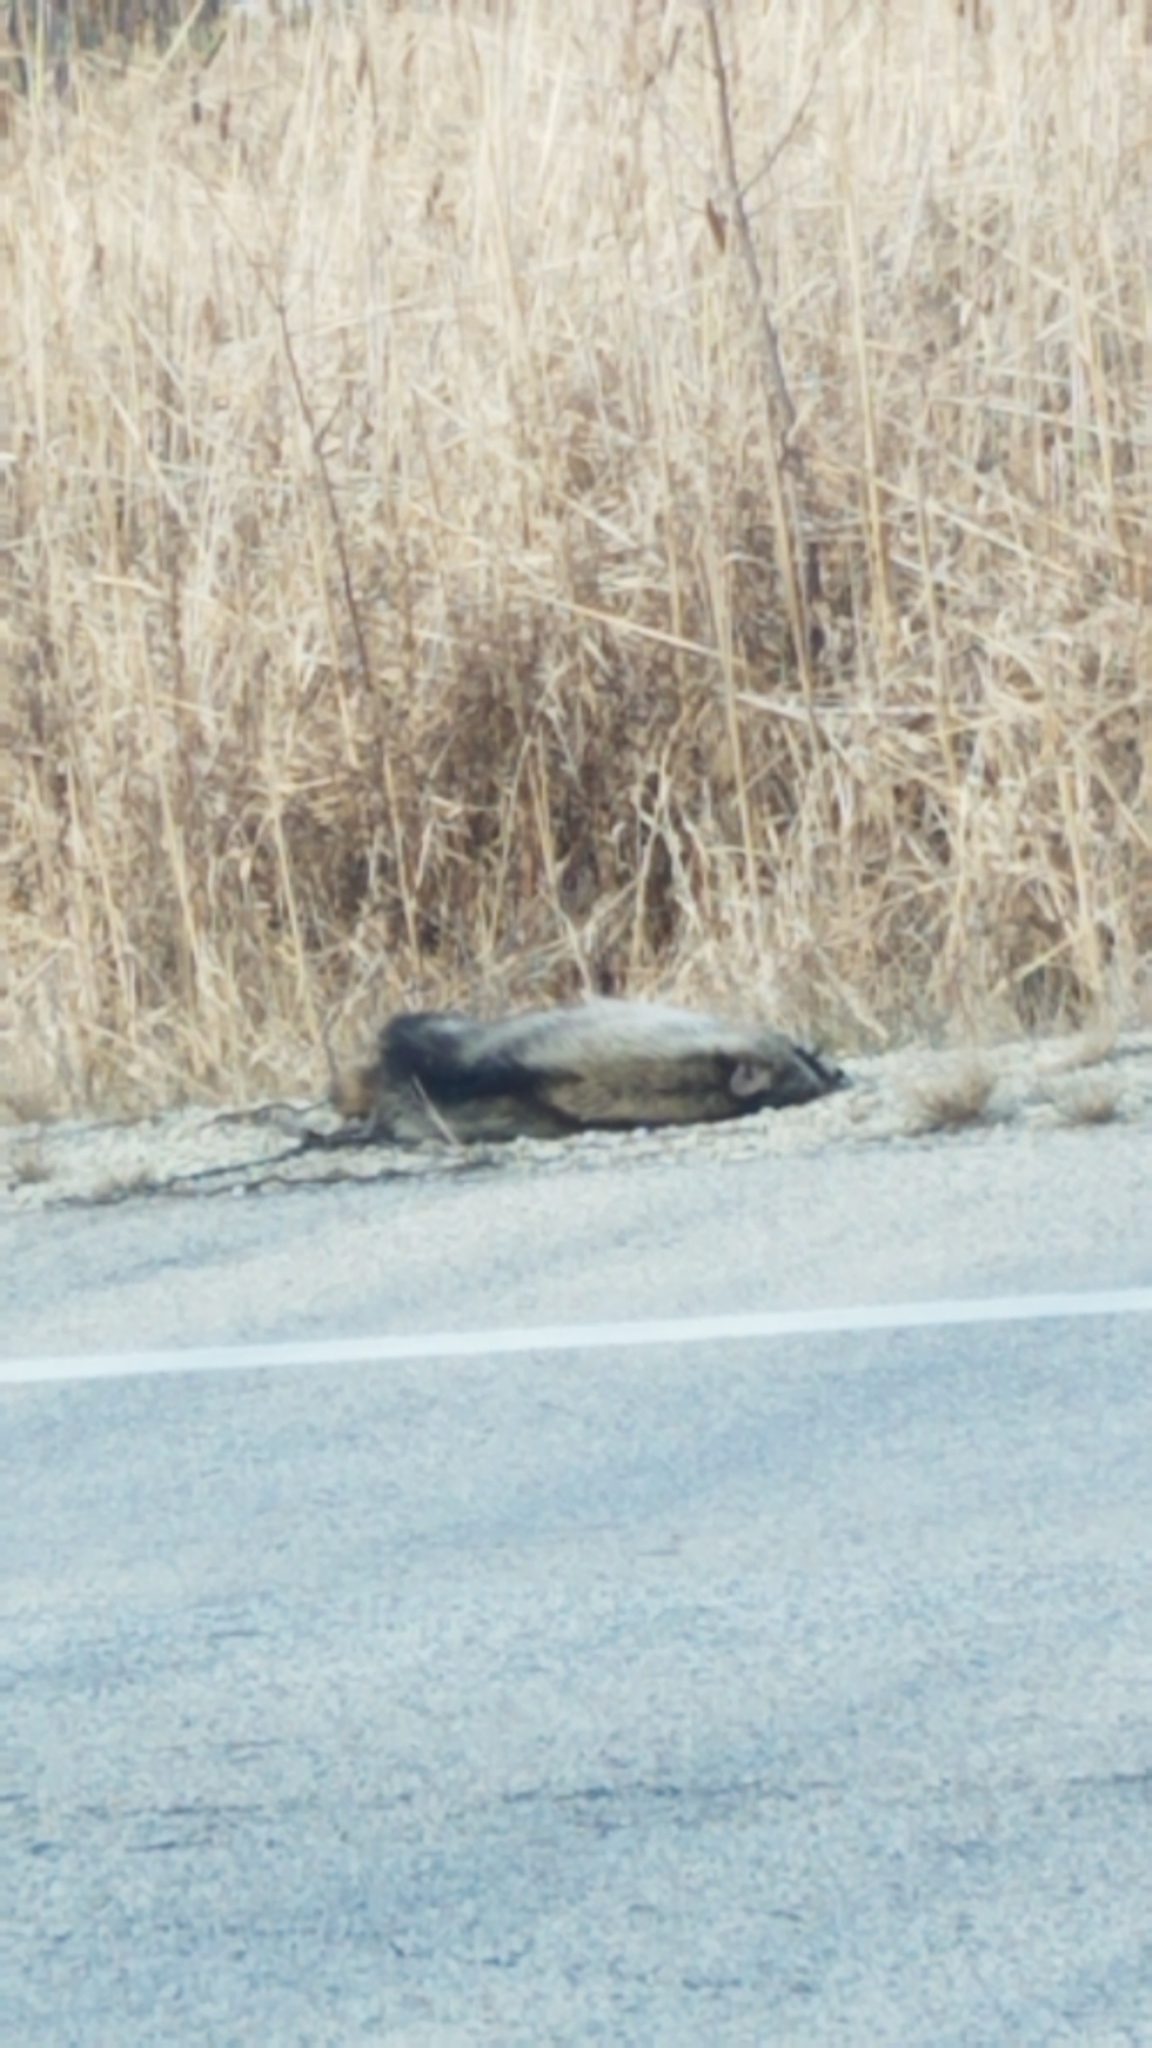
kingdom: Animalia
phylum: Chordata
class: Mammalia
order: Carnivora
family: Procyonidae
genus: Procyon
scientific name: Procyon lotor
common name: Raccoon
